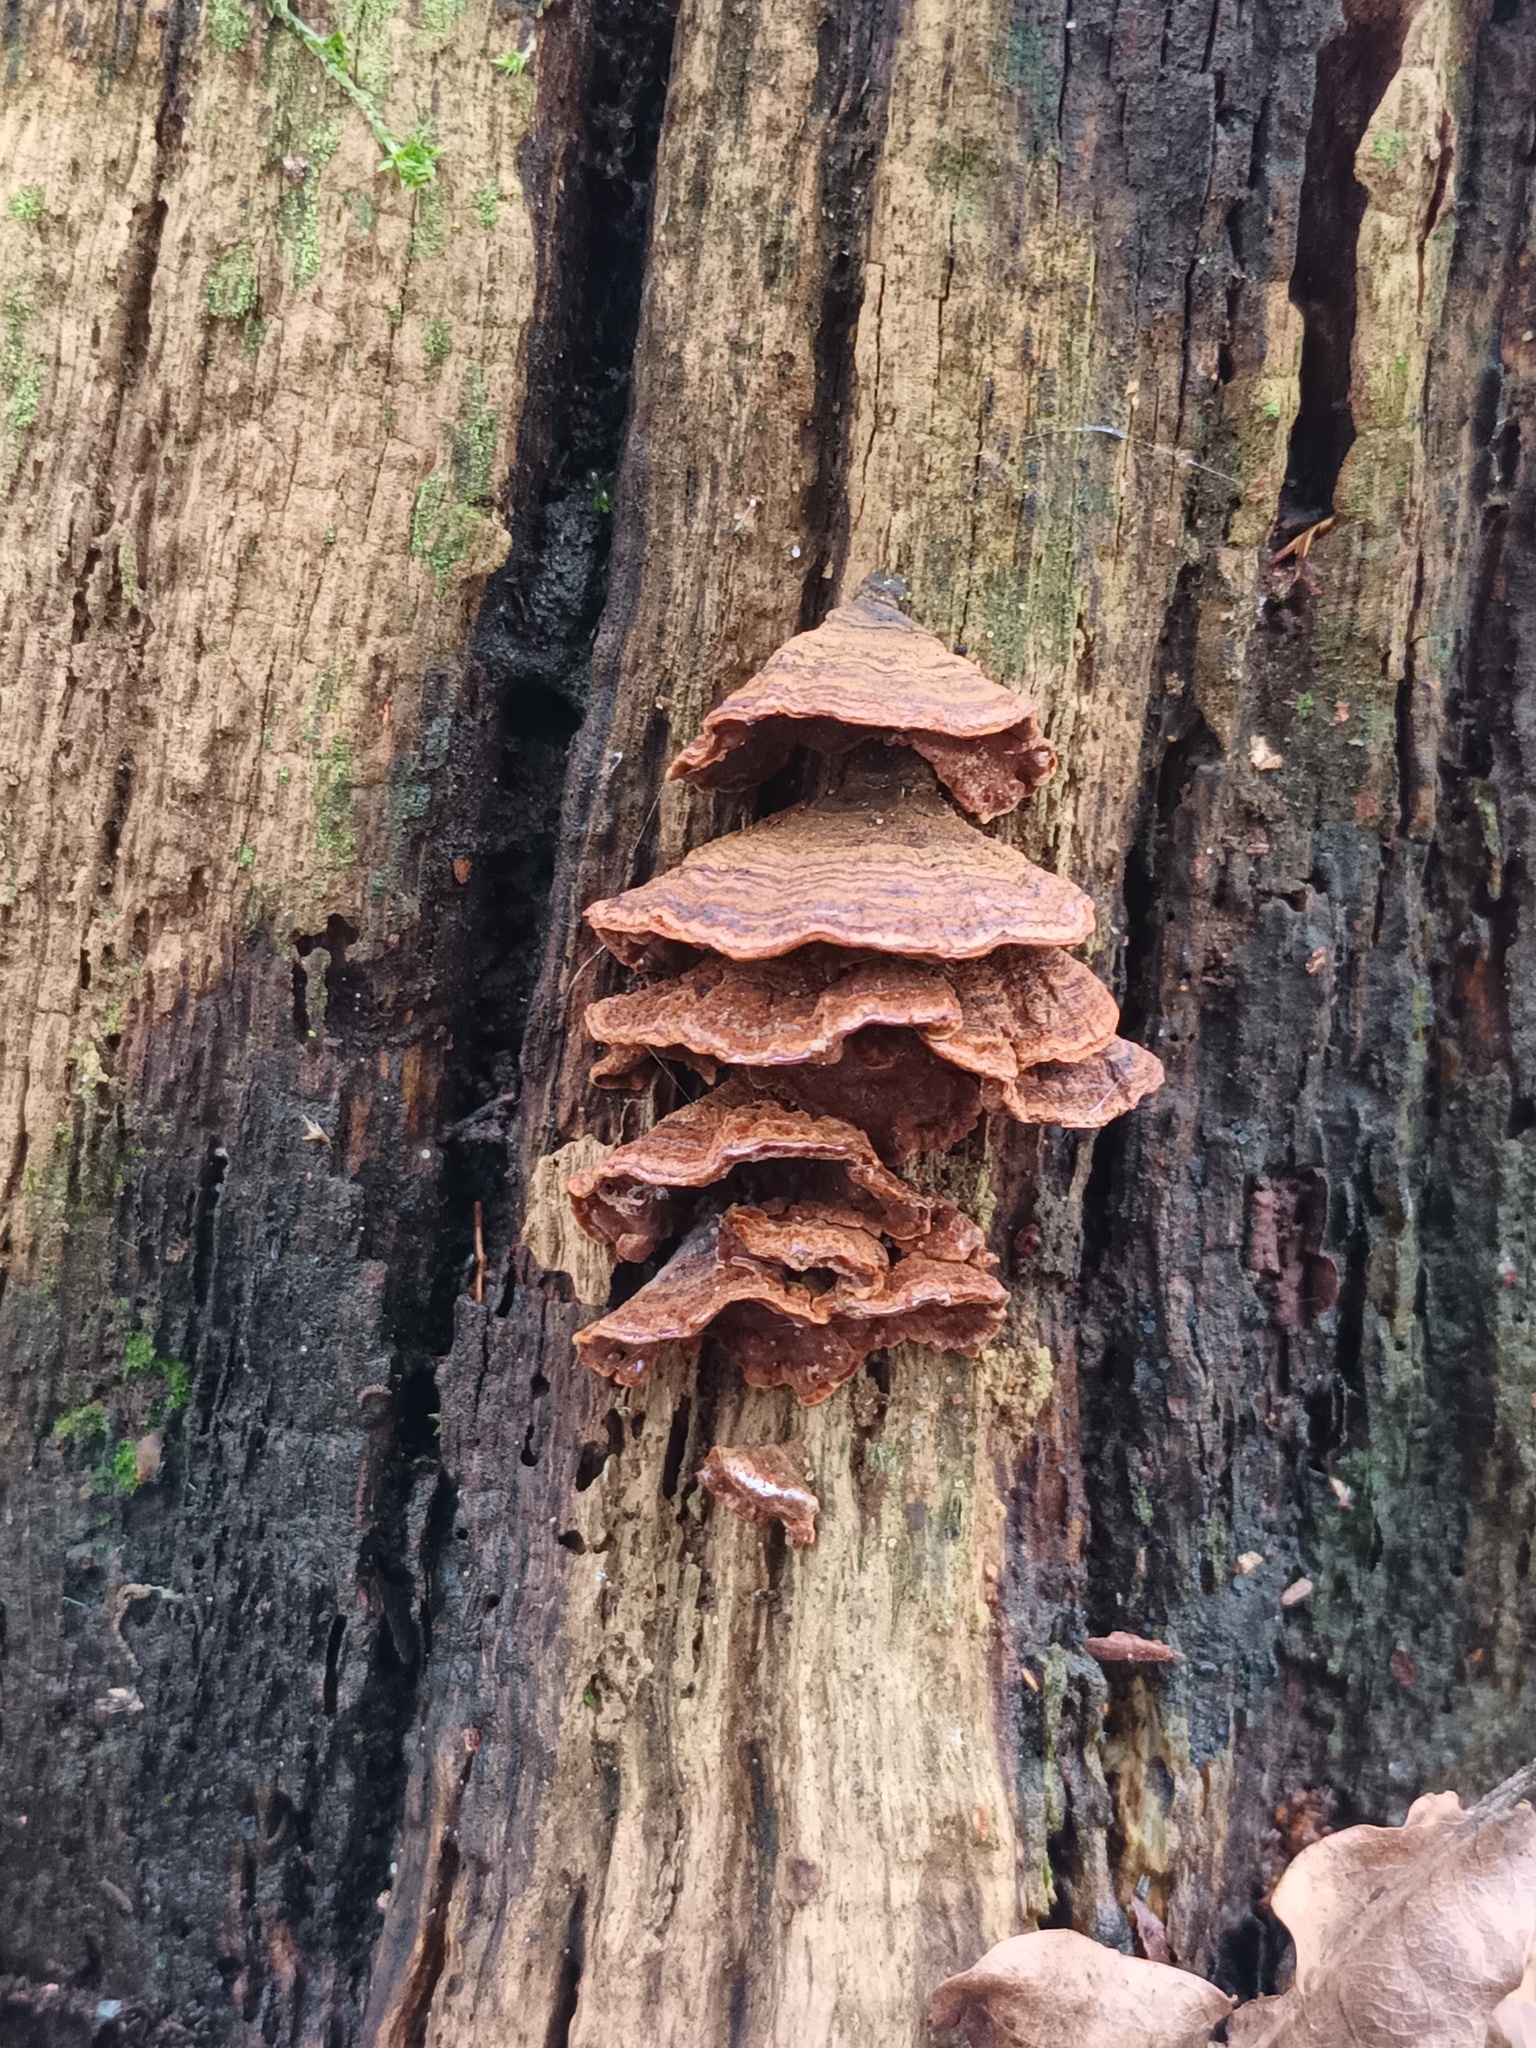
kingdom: Fungi
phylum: Basidiomycota
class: Agaricomycetes
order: Hymenochaetales
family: Hymenochaetaceae
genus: Hymenochaete
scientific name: Hymenochaete rubiginosa
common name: Oak curtain crust
